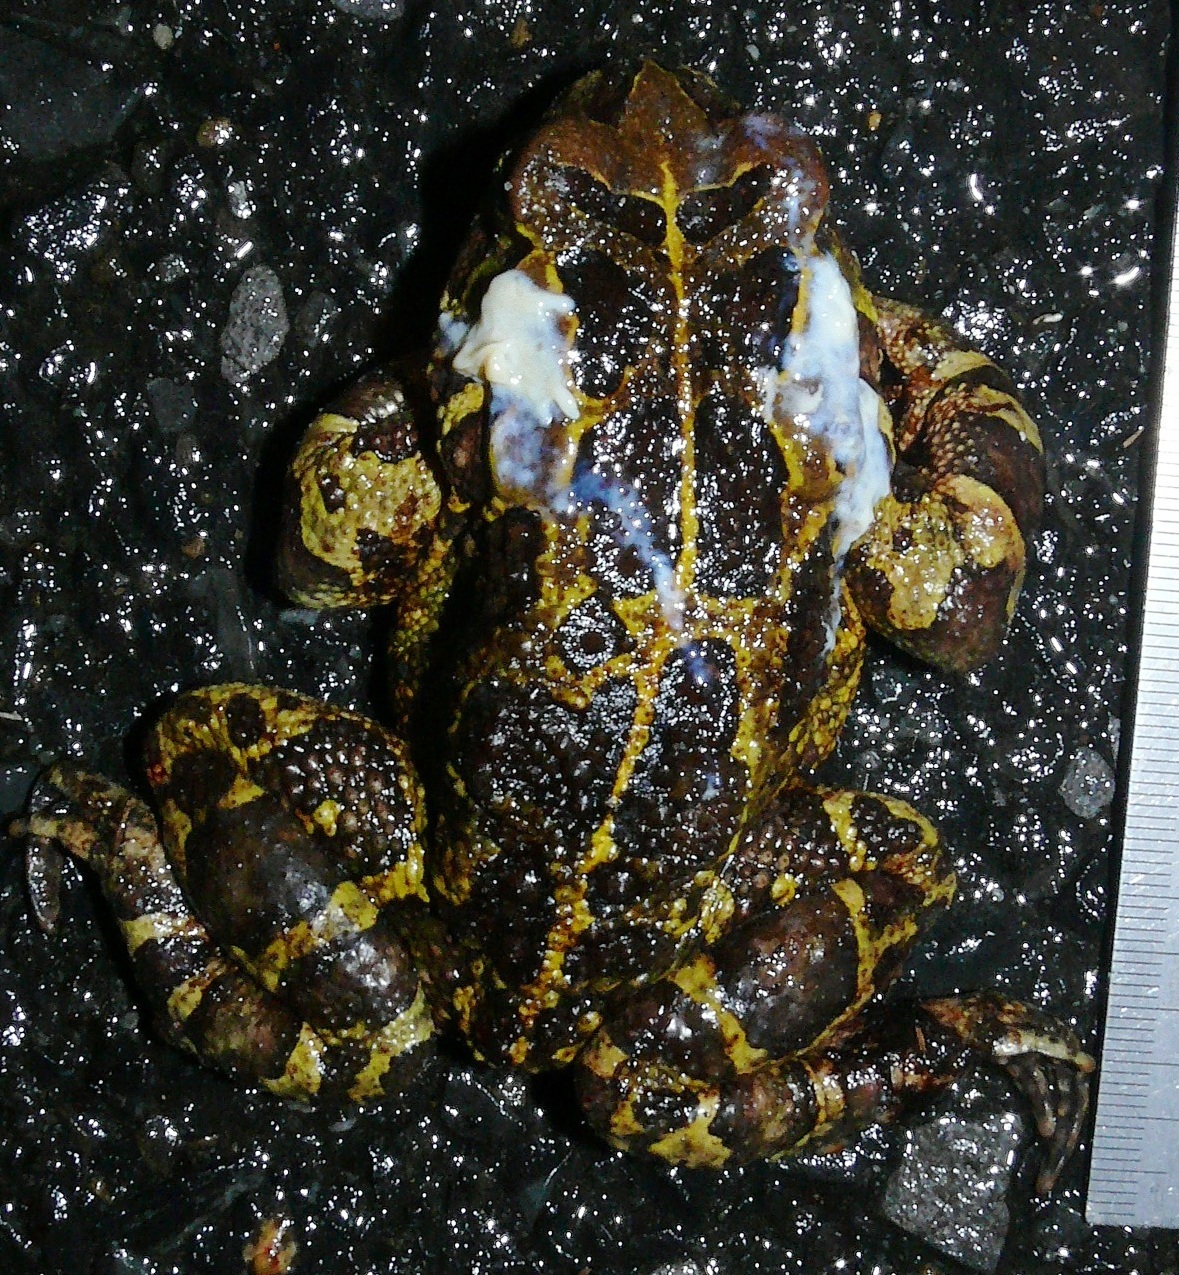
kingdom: Animalia
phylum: Chordata
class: Amphibia
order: Anura
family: Bufonidae
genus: Sclerophrys
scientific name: Sclerophrys pantherina
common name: Panther toad
